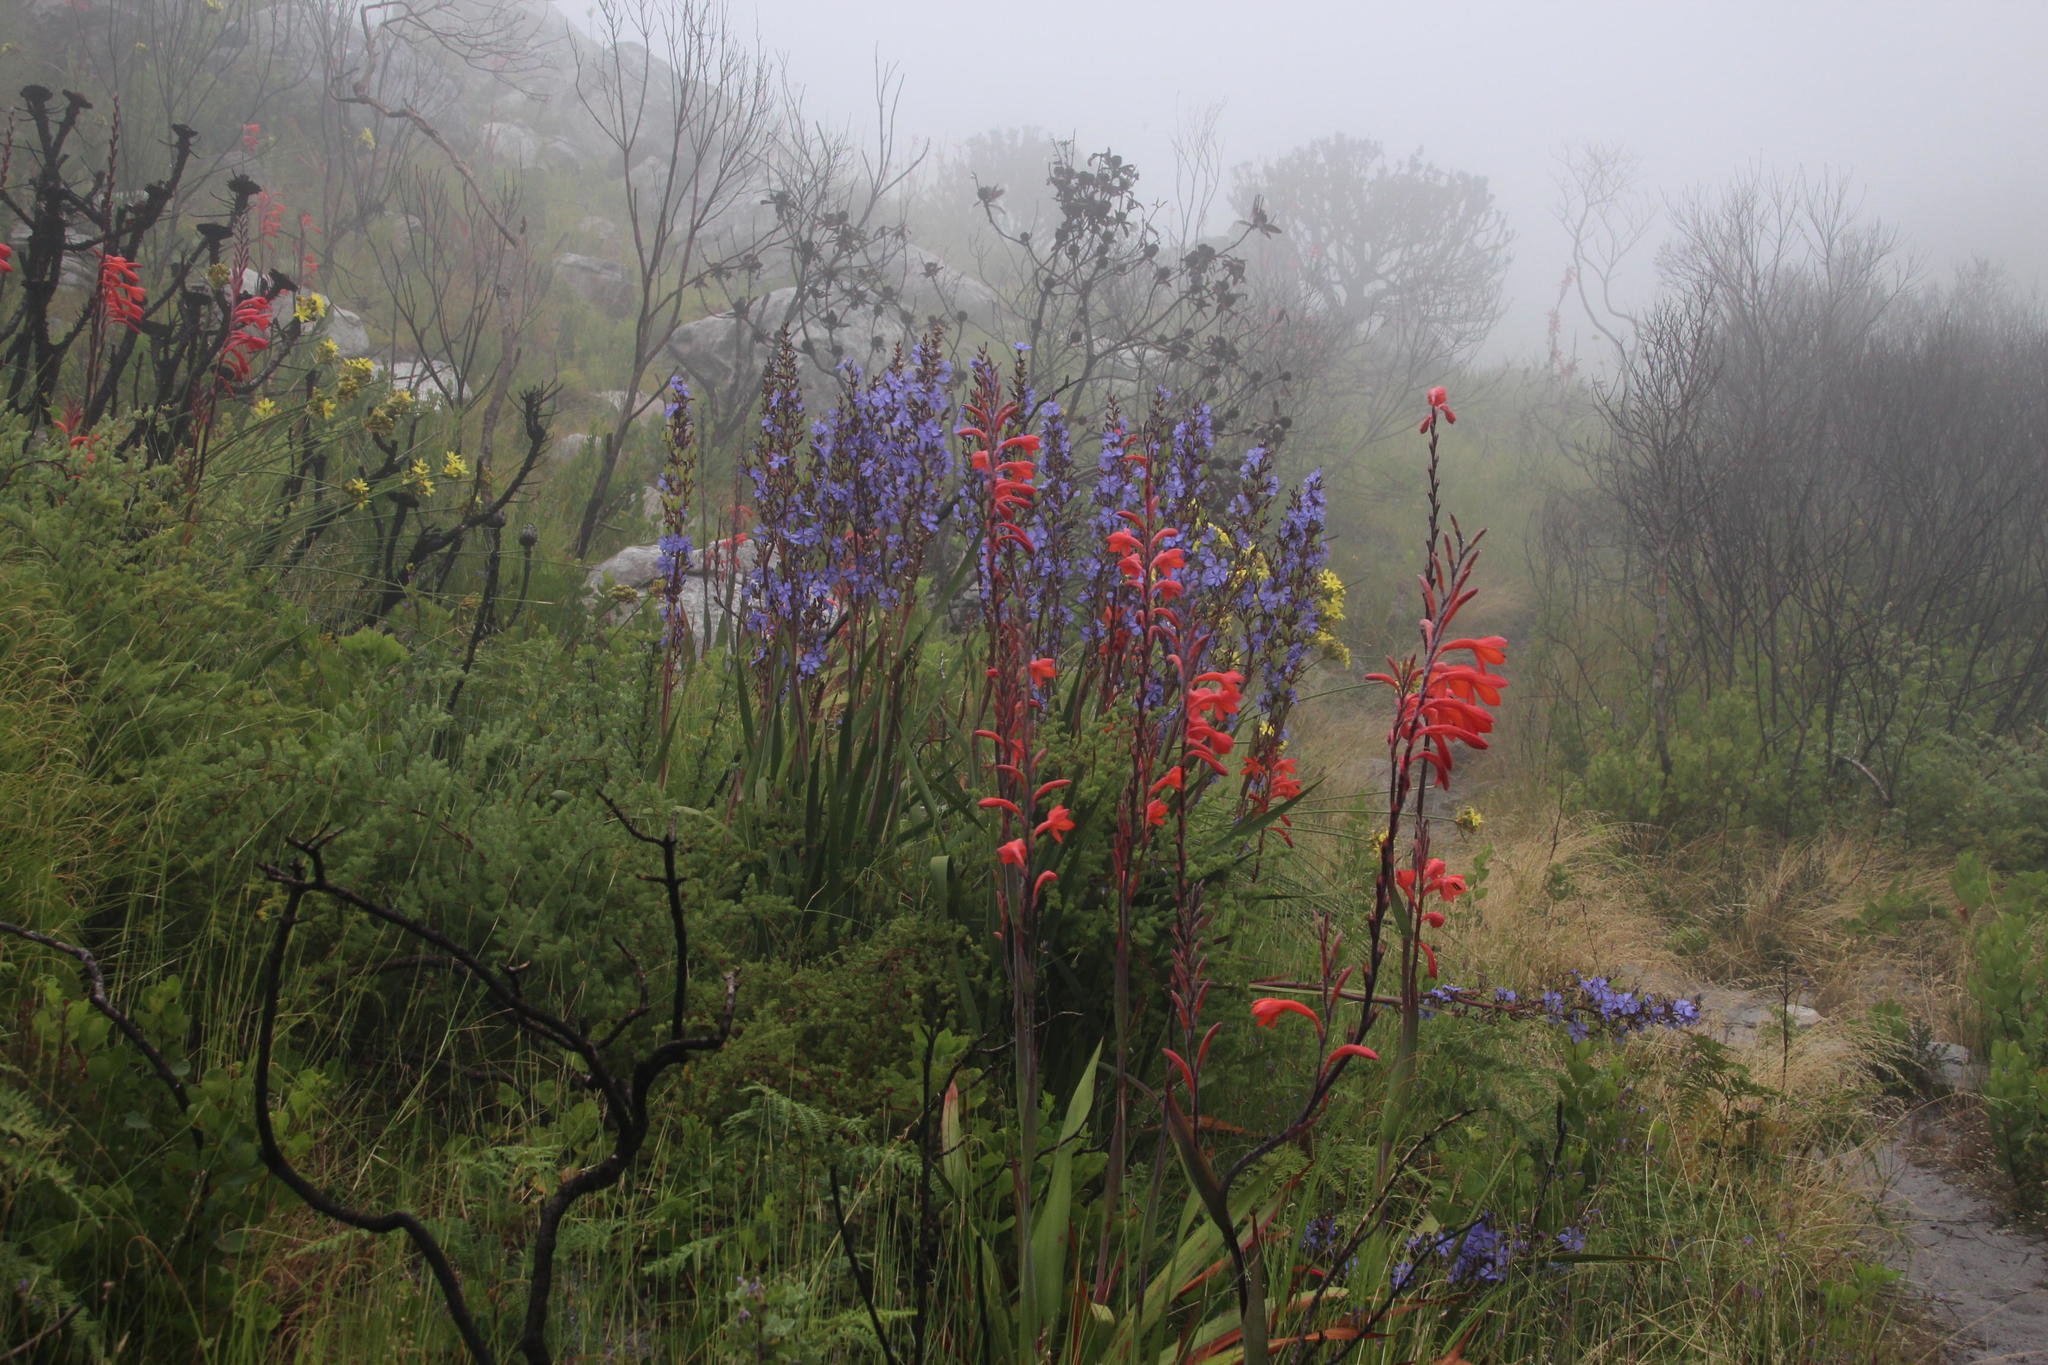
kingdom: Plantae
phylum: Tracheophyta
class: Liliopsida
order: Asparagales
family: Iridaceae
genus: Watsonia
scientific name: Watsonia tabularis
